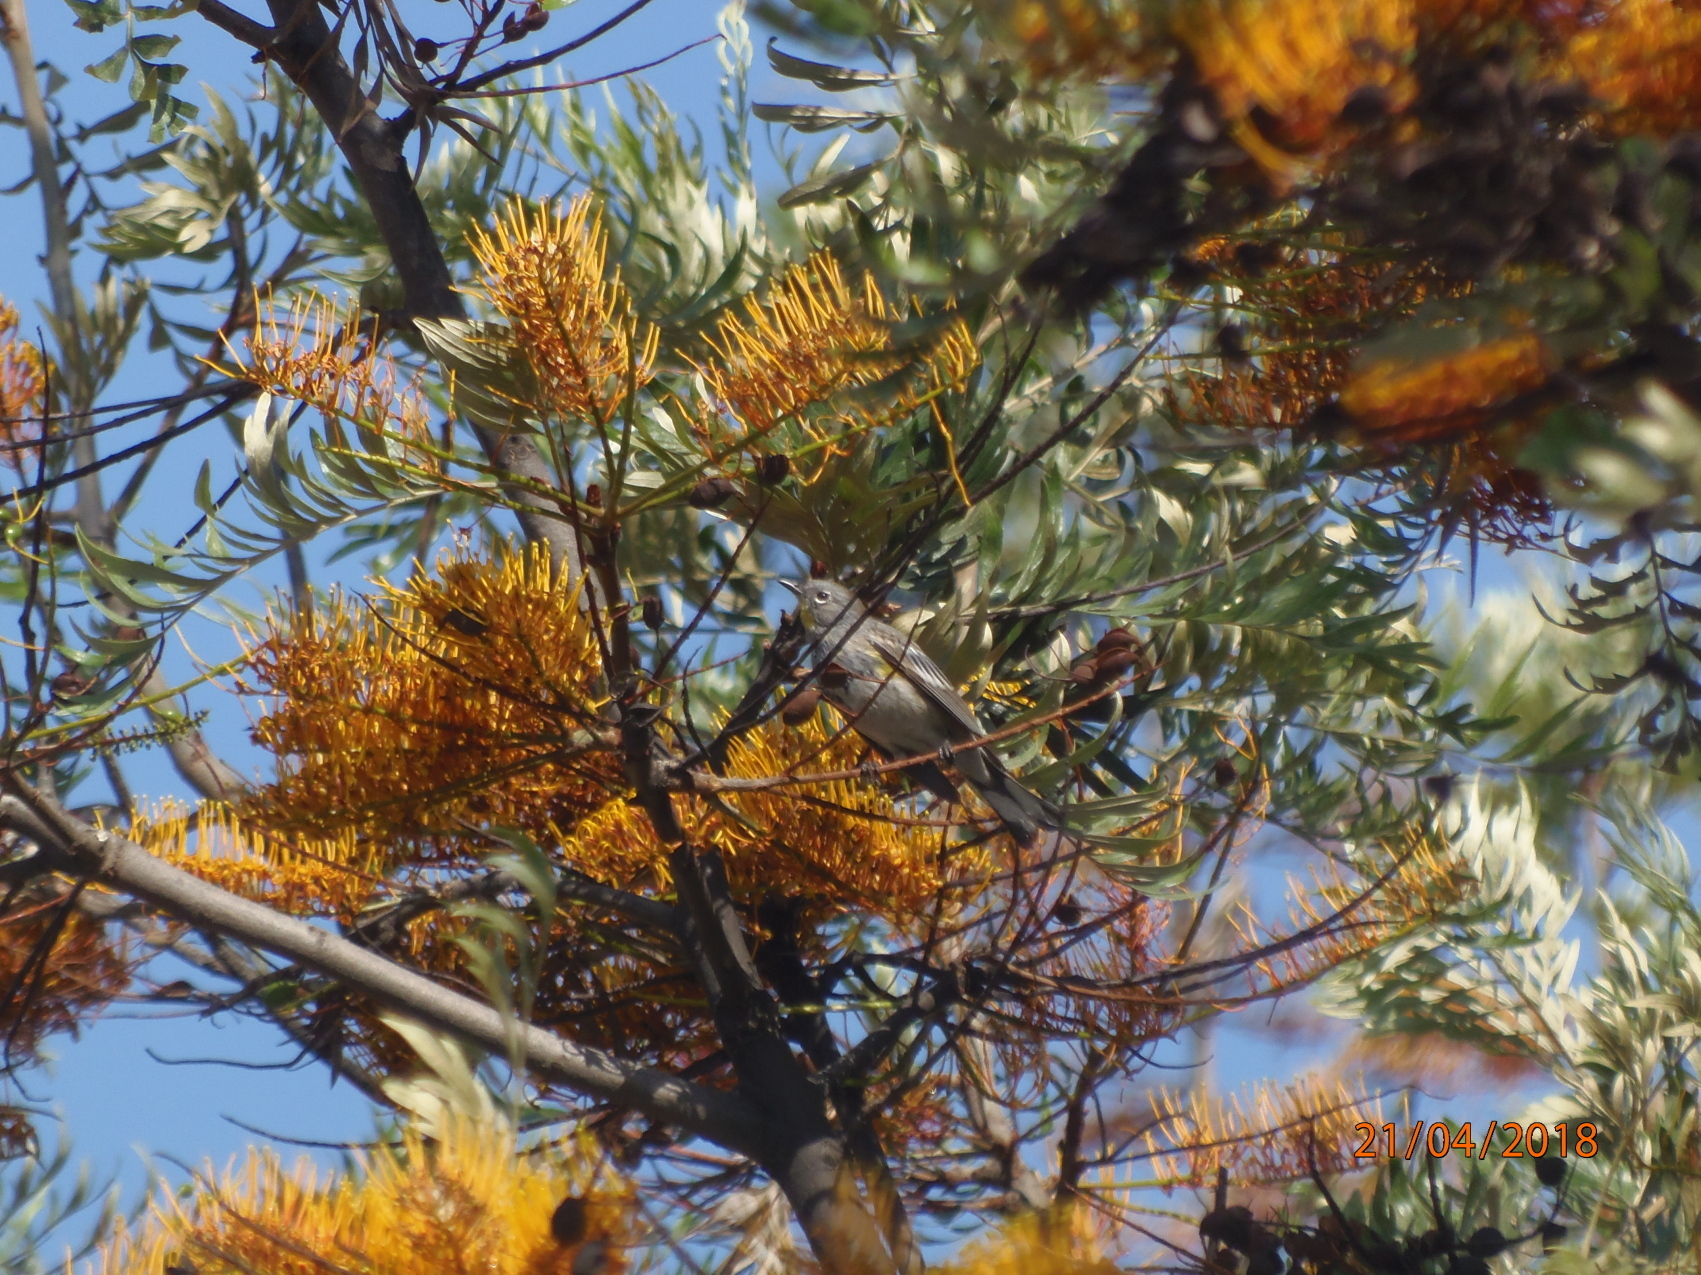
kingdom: Animalia
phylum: Chordata
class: Aves
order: Passeriformes
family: Parulidae
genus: Setophaga
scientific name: Setophaga auduboni
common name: Audubon's warbler
